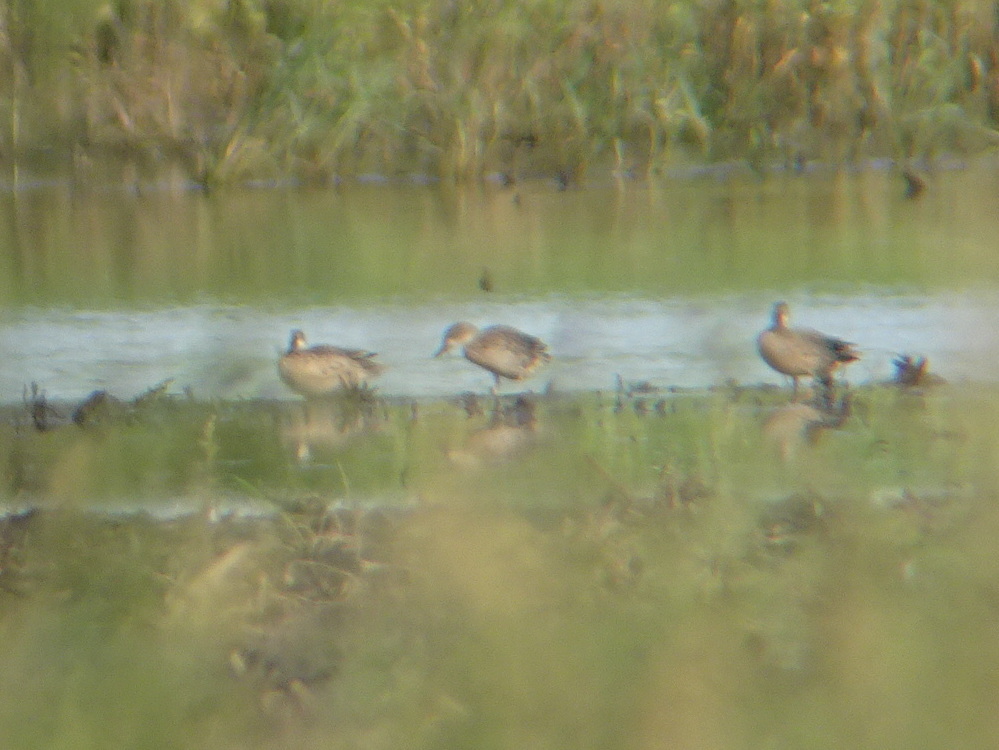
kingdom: Animalia
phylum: Chordata
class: Aves
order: Anseriformes
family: Anatidae
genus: Spatula
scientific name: Spatula discors
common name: Blue-winged teal
